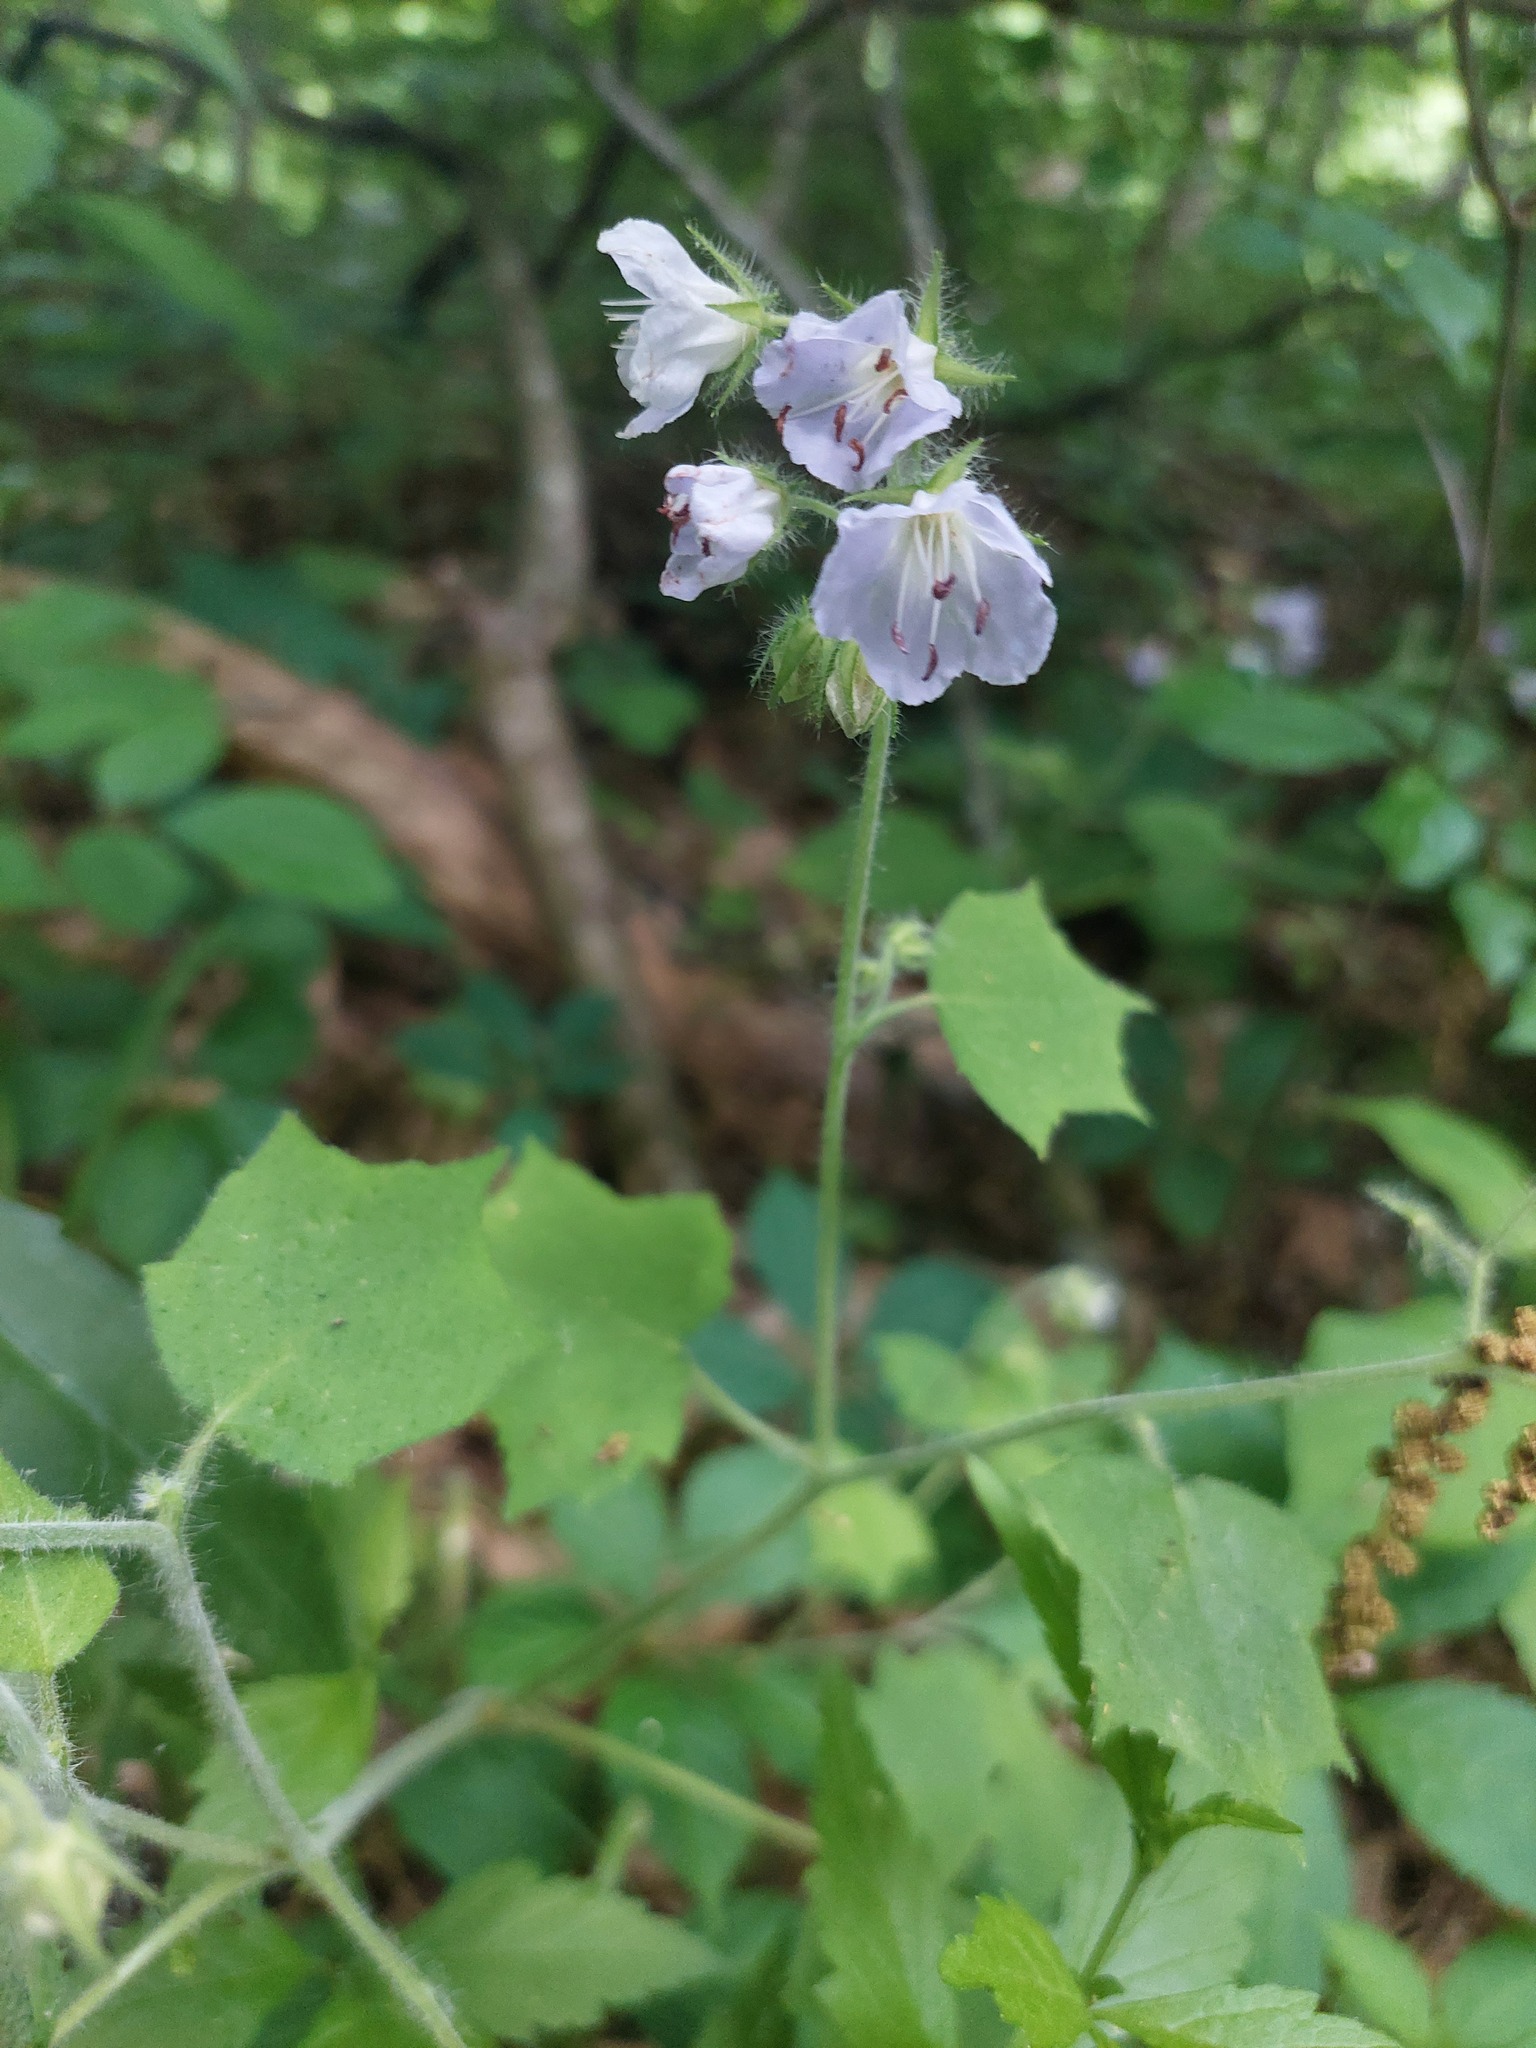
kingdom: Plantae
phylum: Tracheophyta
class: Magnoliopsida
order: Boraginales
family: Hydrophyllaceae
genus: Hydrophyllum
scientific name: Hydrophyllum appendiculatum
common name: Appendaged waterleaf
